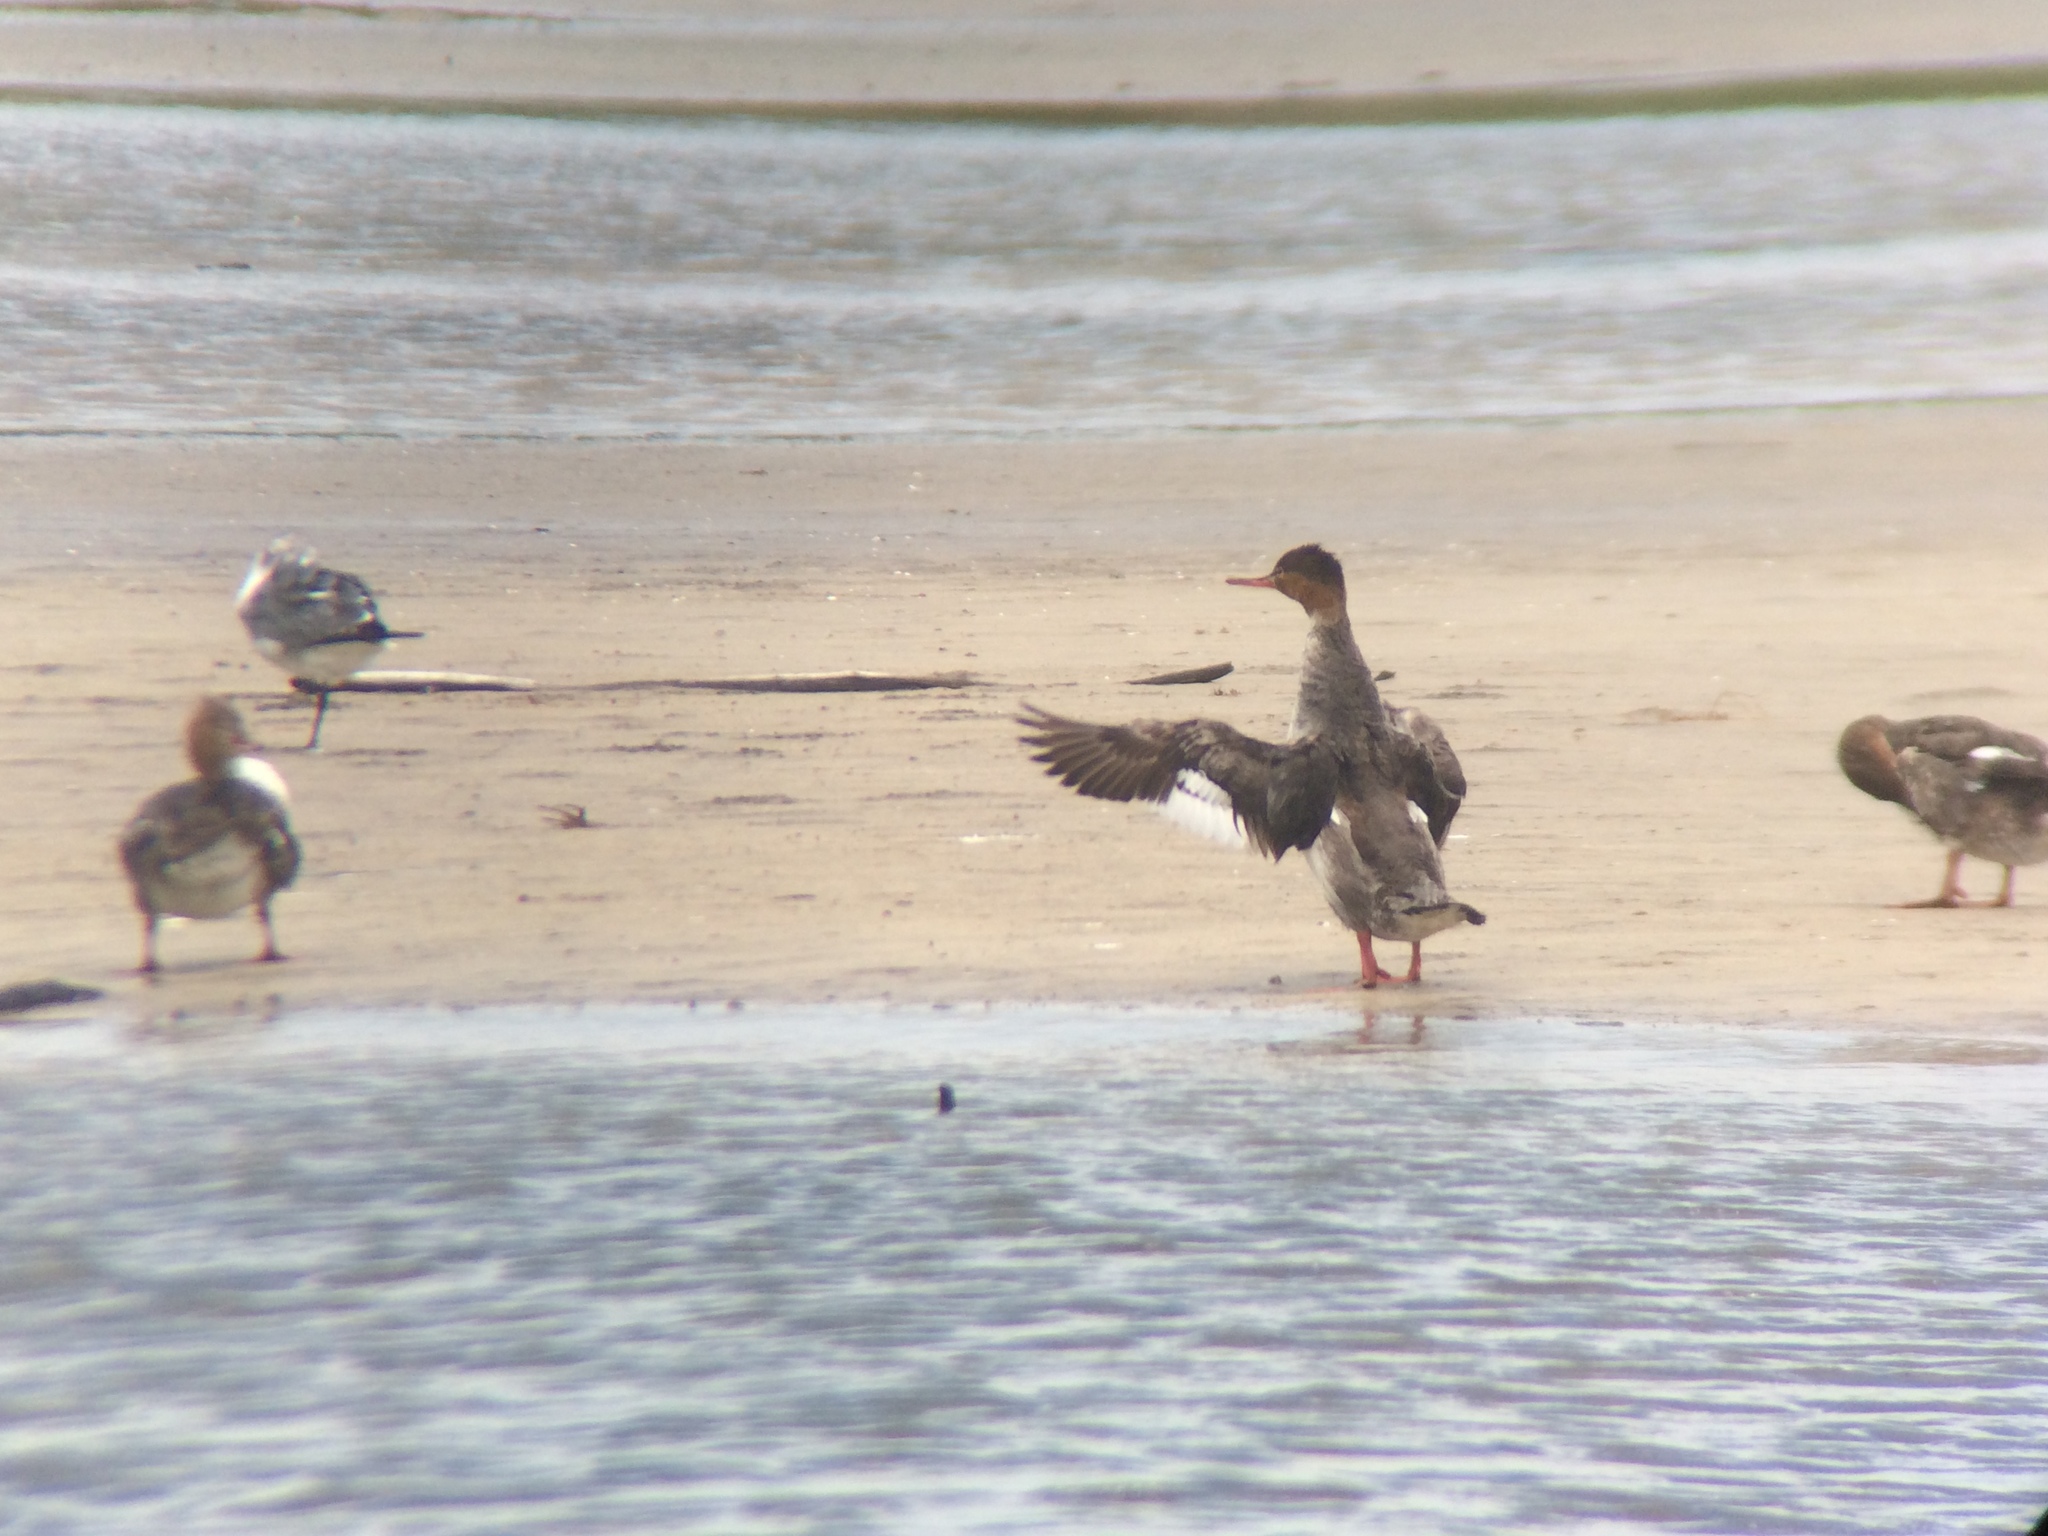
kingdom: Animalia
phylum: Chordata
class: Aves
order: Anseriformes
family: Anatidae
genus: Mergus
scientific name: Mergus serrator
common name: Red-breasted merganser
